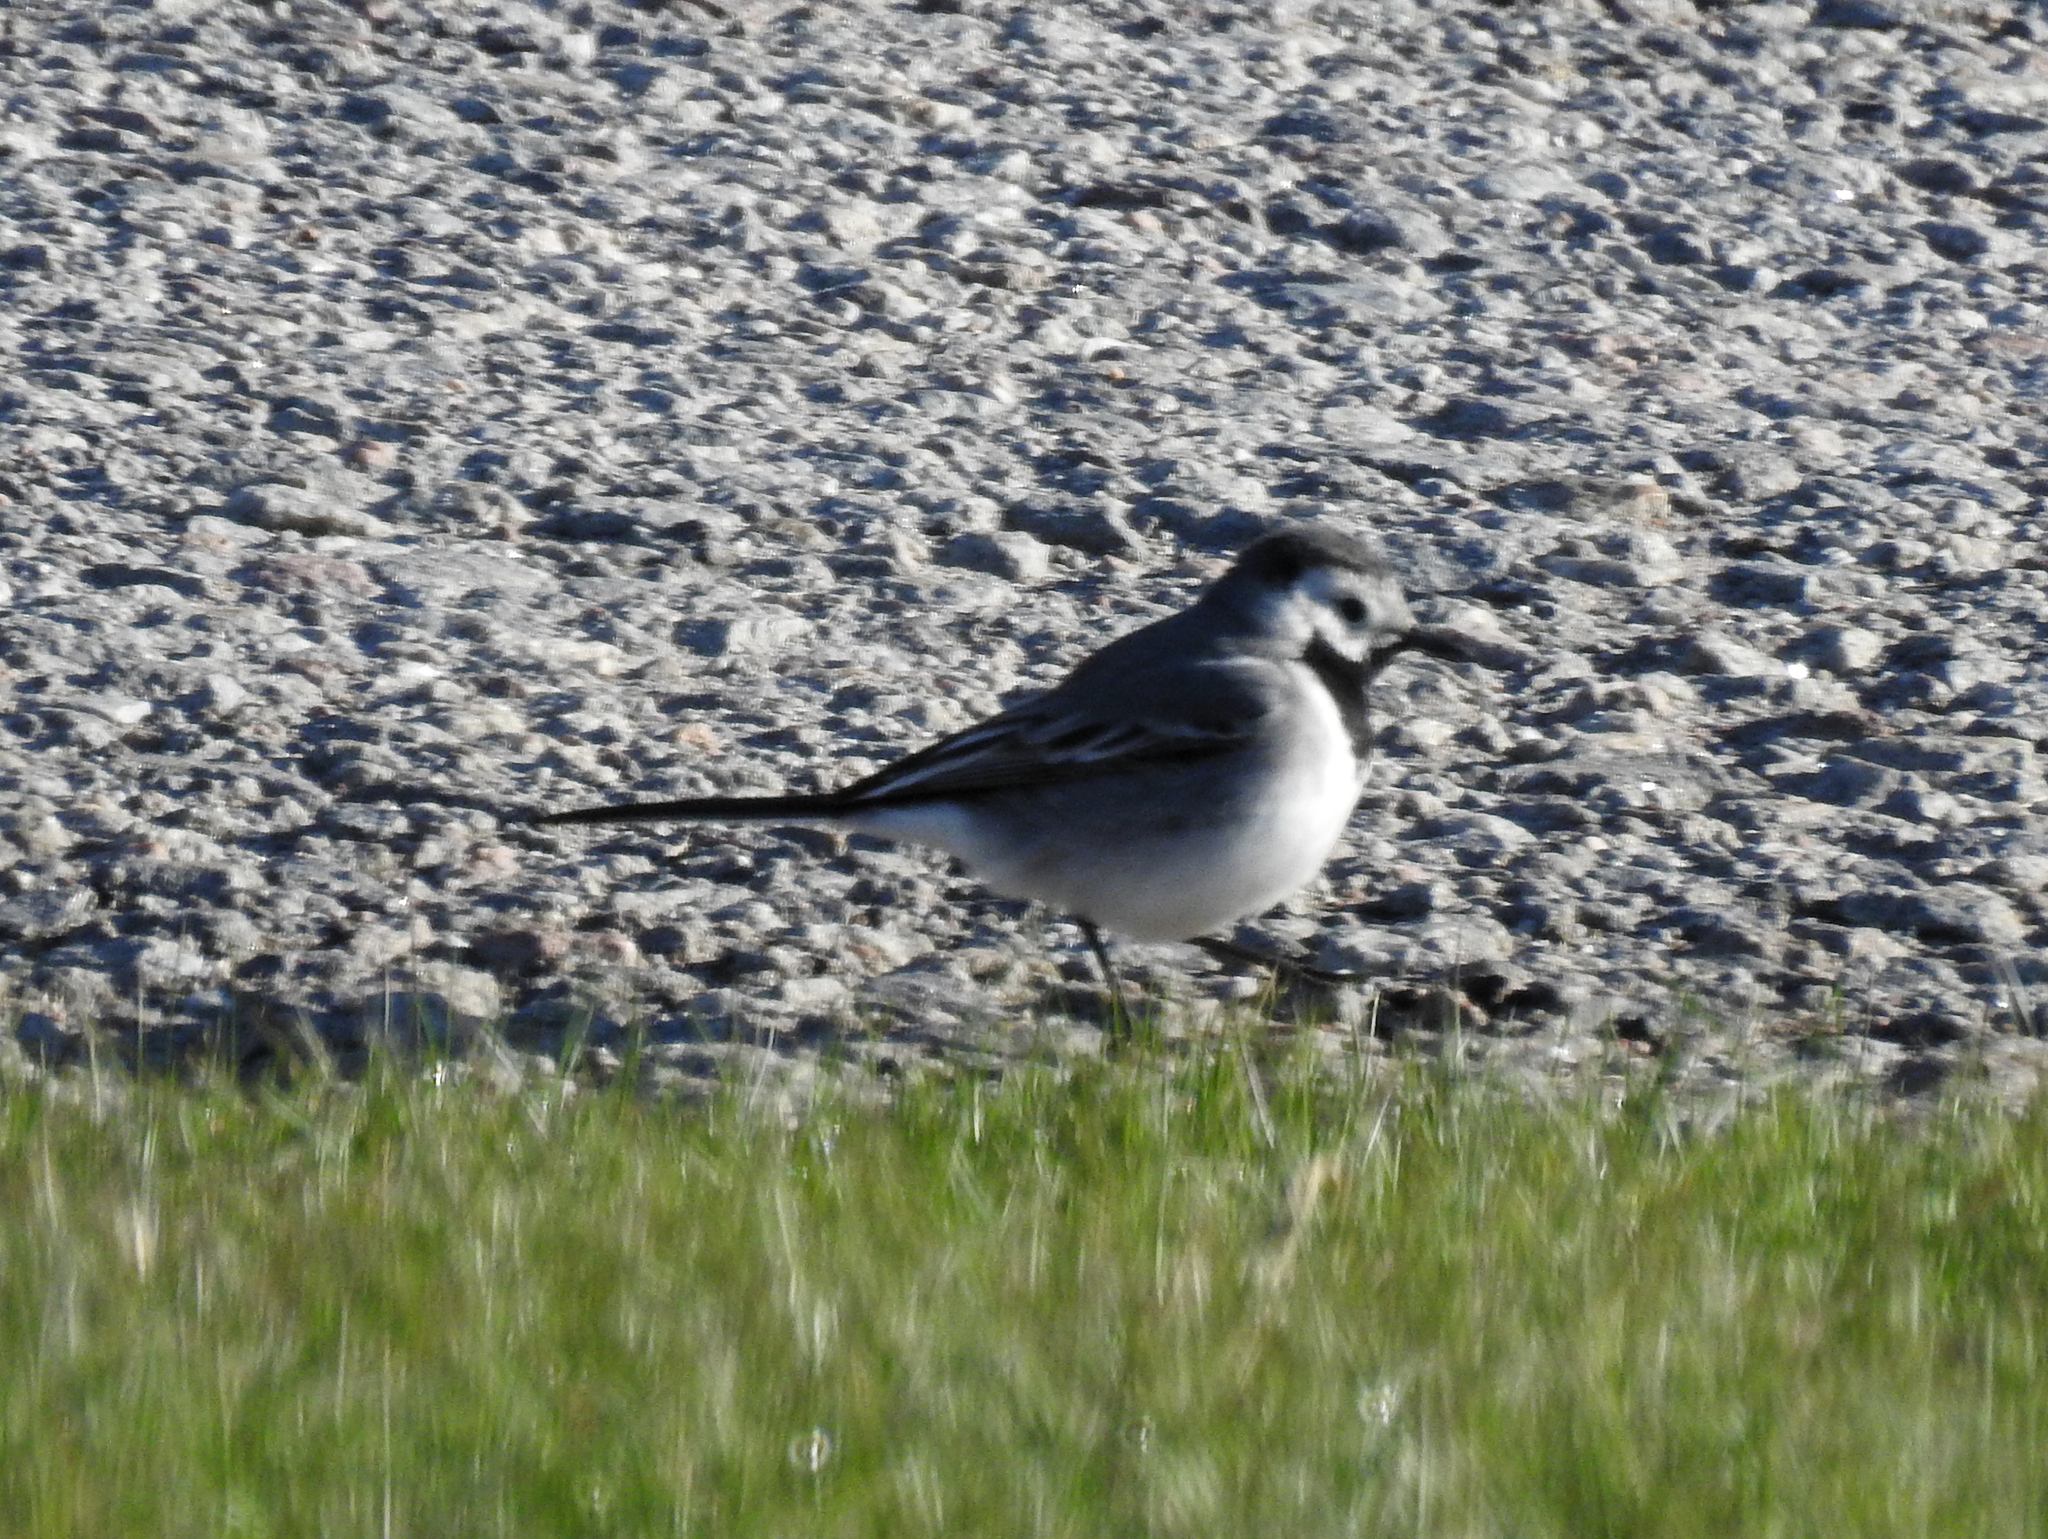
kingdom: Animalia
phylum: Chordata
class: Aves
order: Passeriformes
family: Motacillidae
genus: Motacilla
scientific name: Motacilla alba
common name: White wagtail
